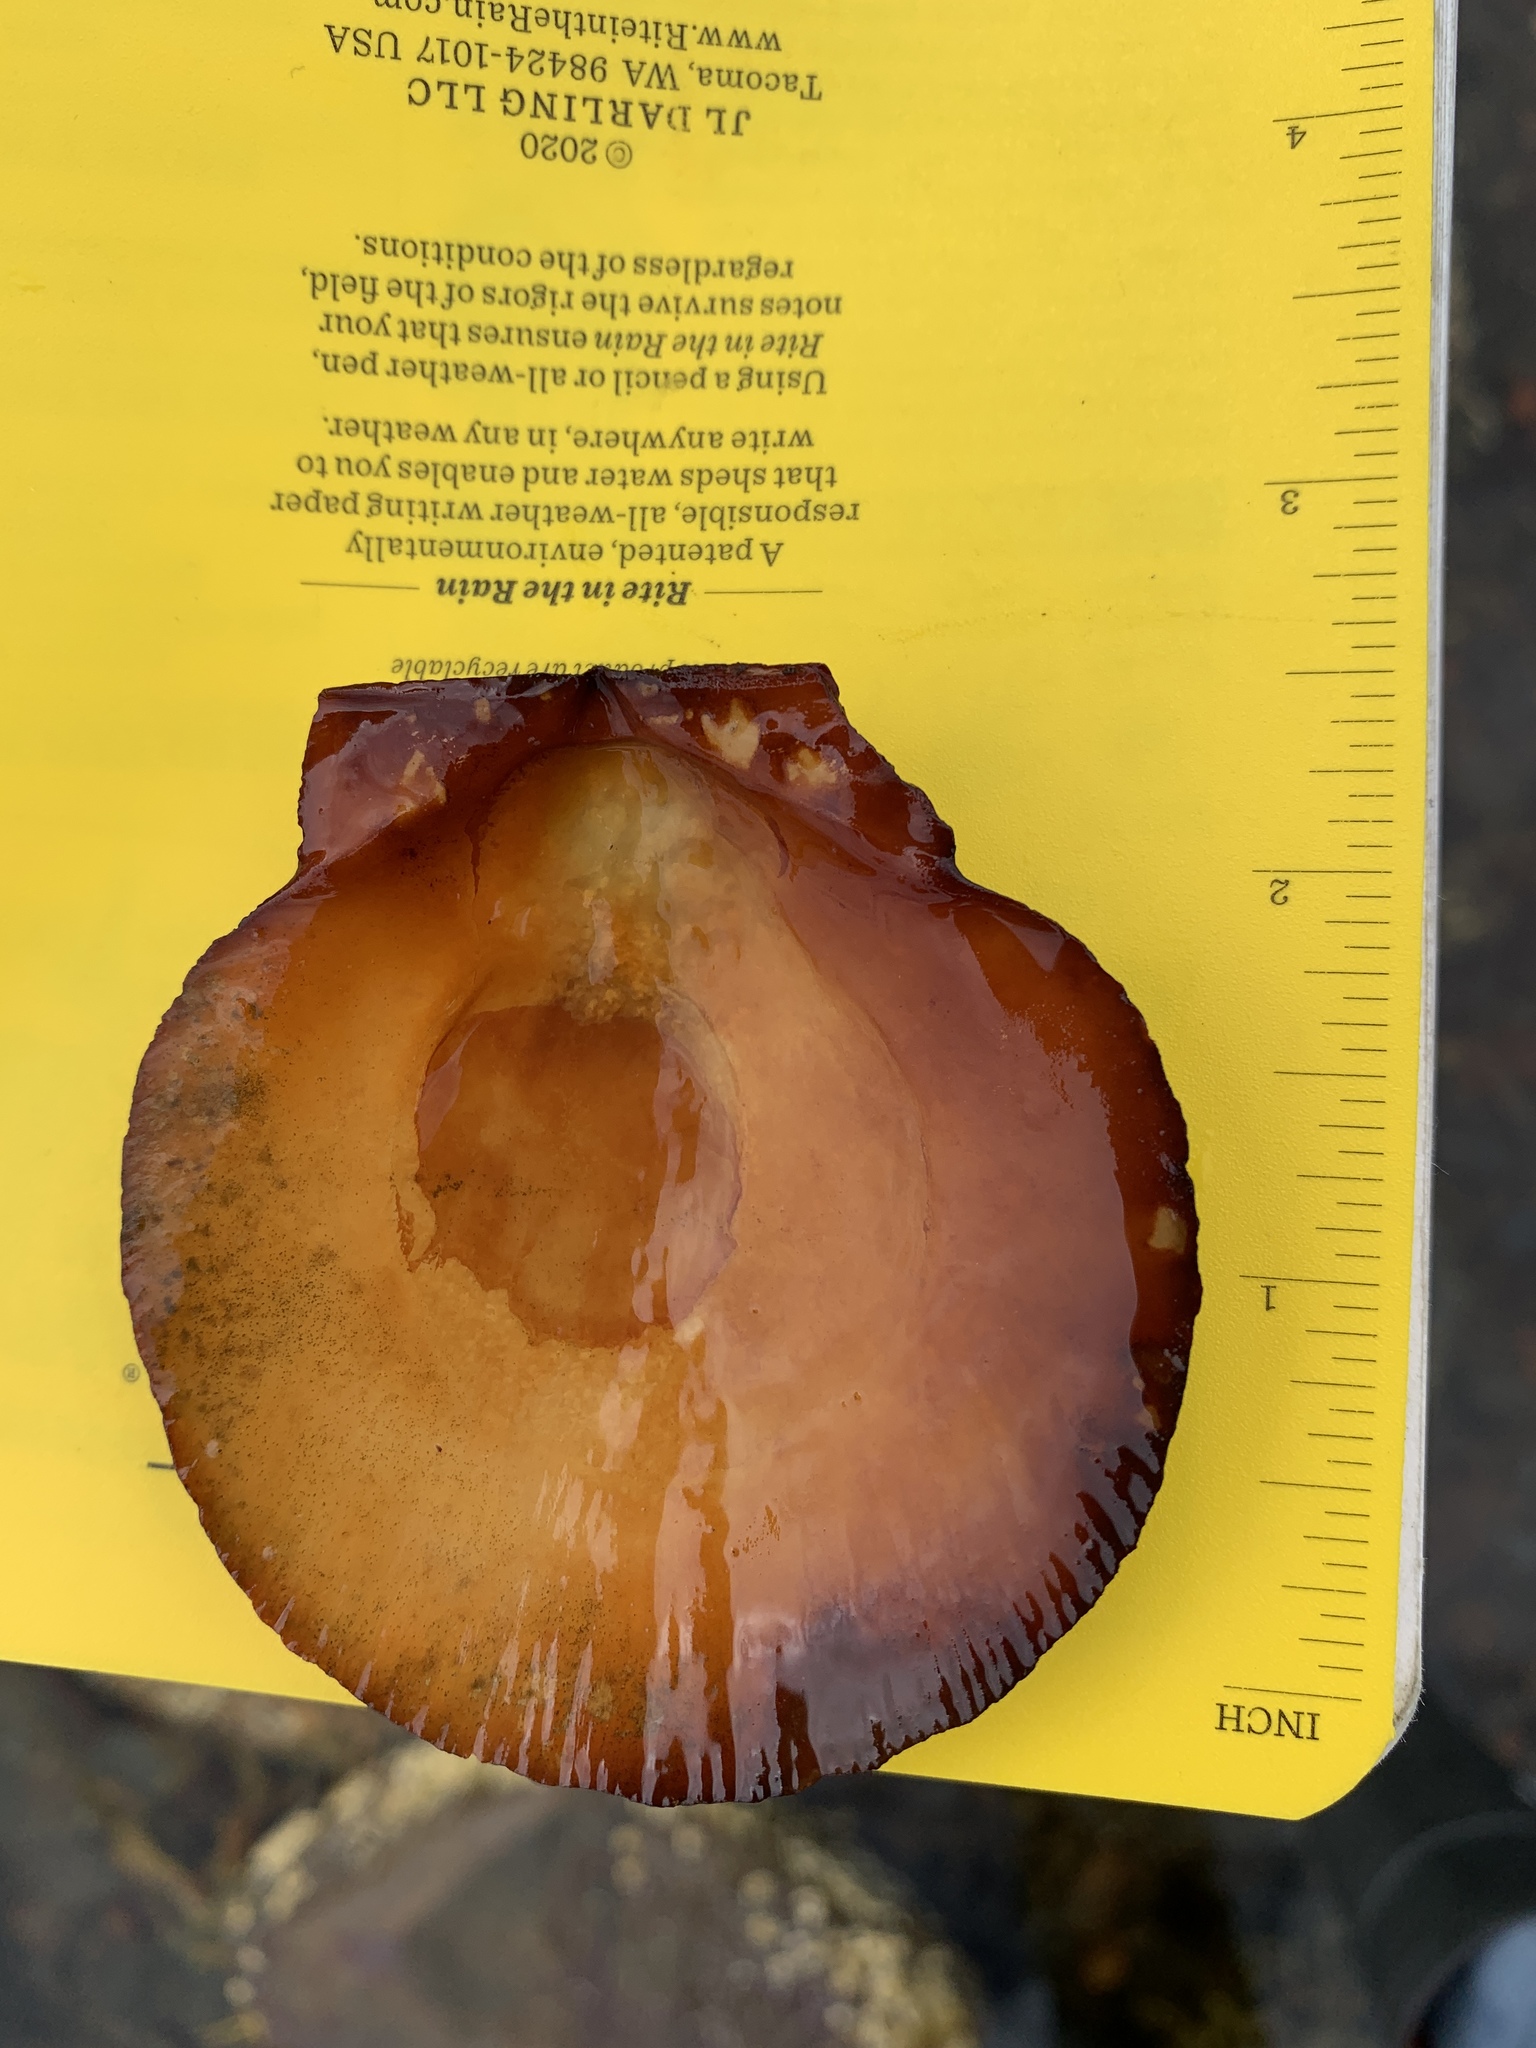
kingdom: Animalia
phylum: Mollusca
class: Bivalvia
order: Pectinida
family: Pectinidae
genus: Placopecten
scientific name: Placopecten magellanicus
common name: American sea scallop
